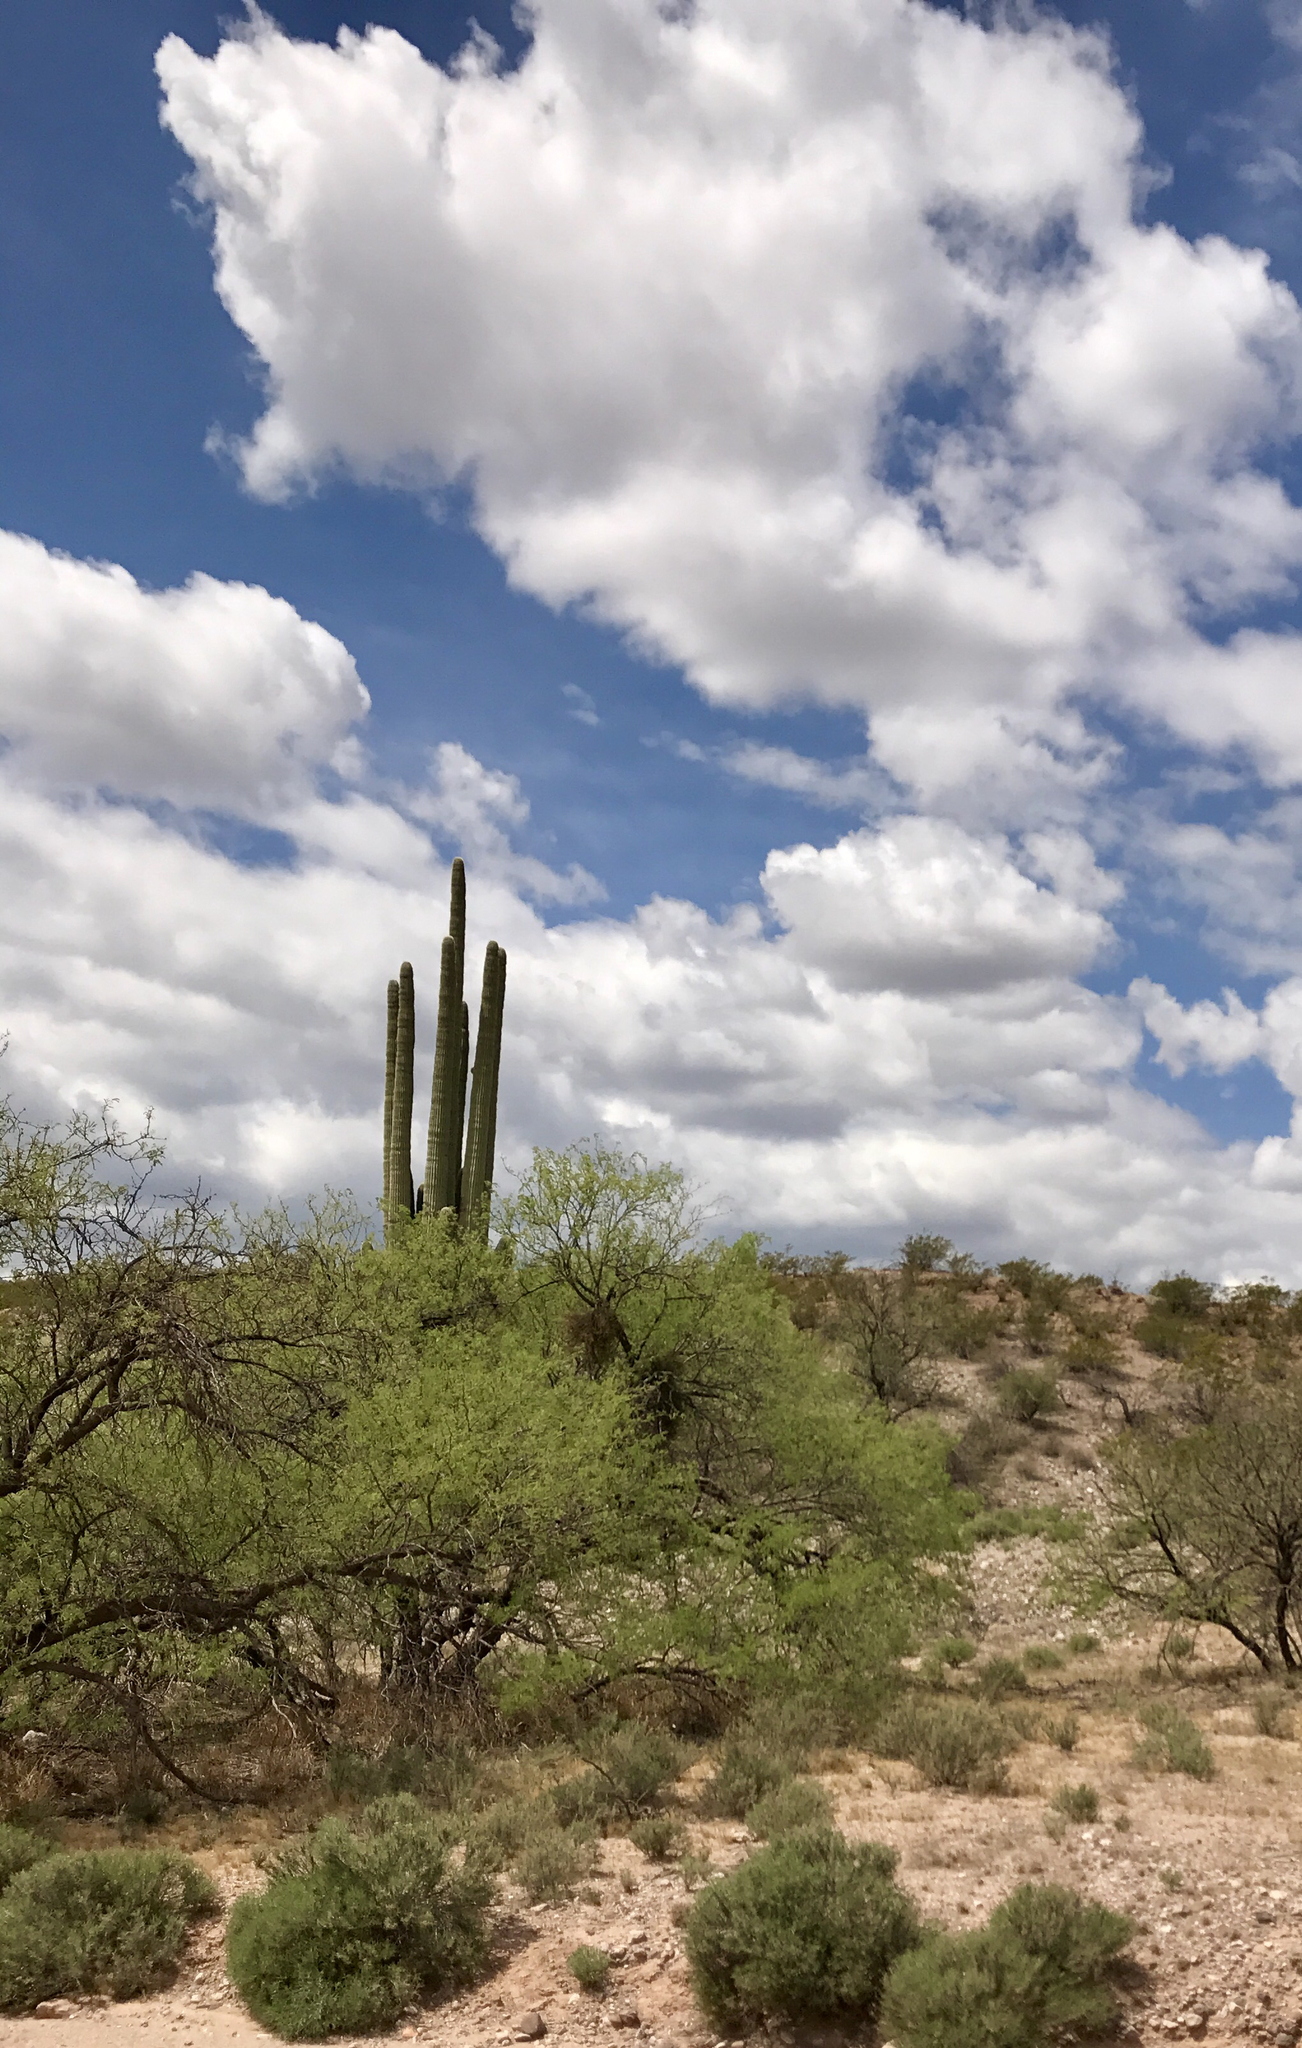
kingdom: Plantae
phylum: Tracheophyta
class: Magnoliopsida
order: Caryophyllales
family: Cactaceae
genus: Carnegiea
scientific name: Carnegiea gigantea
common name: Saguaro
